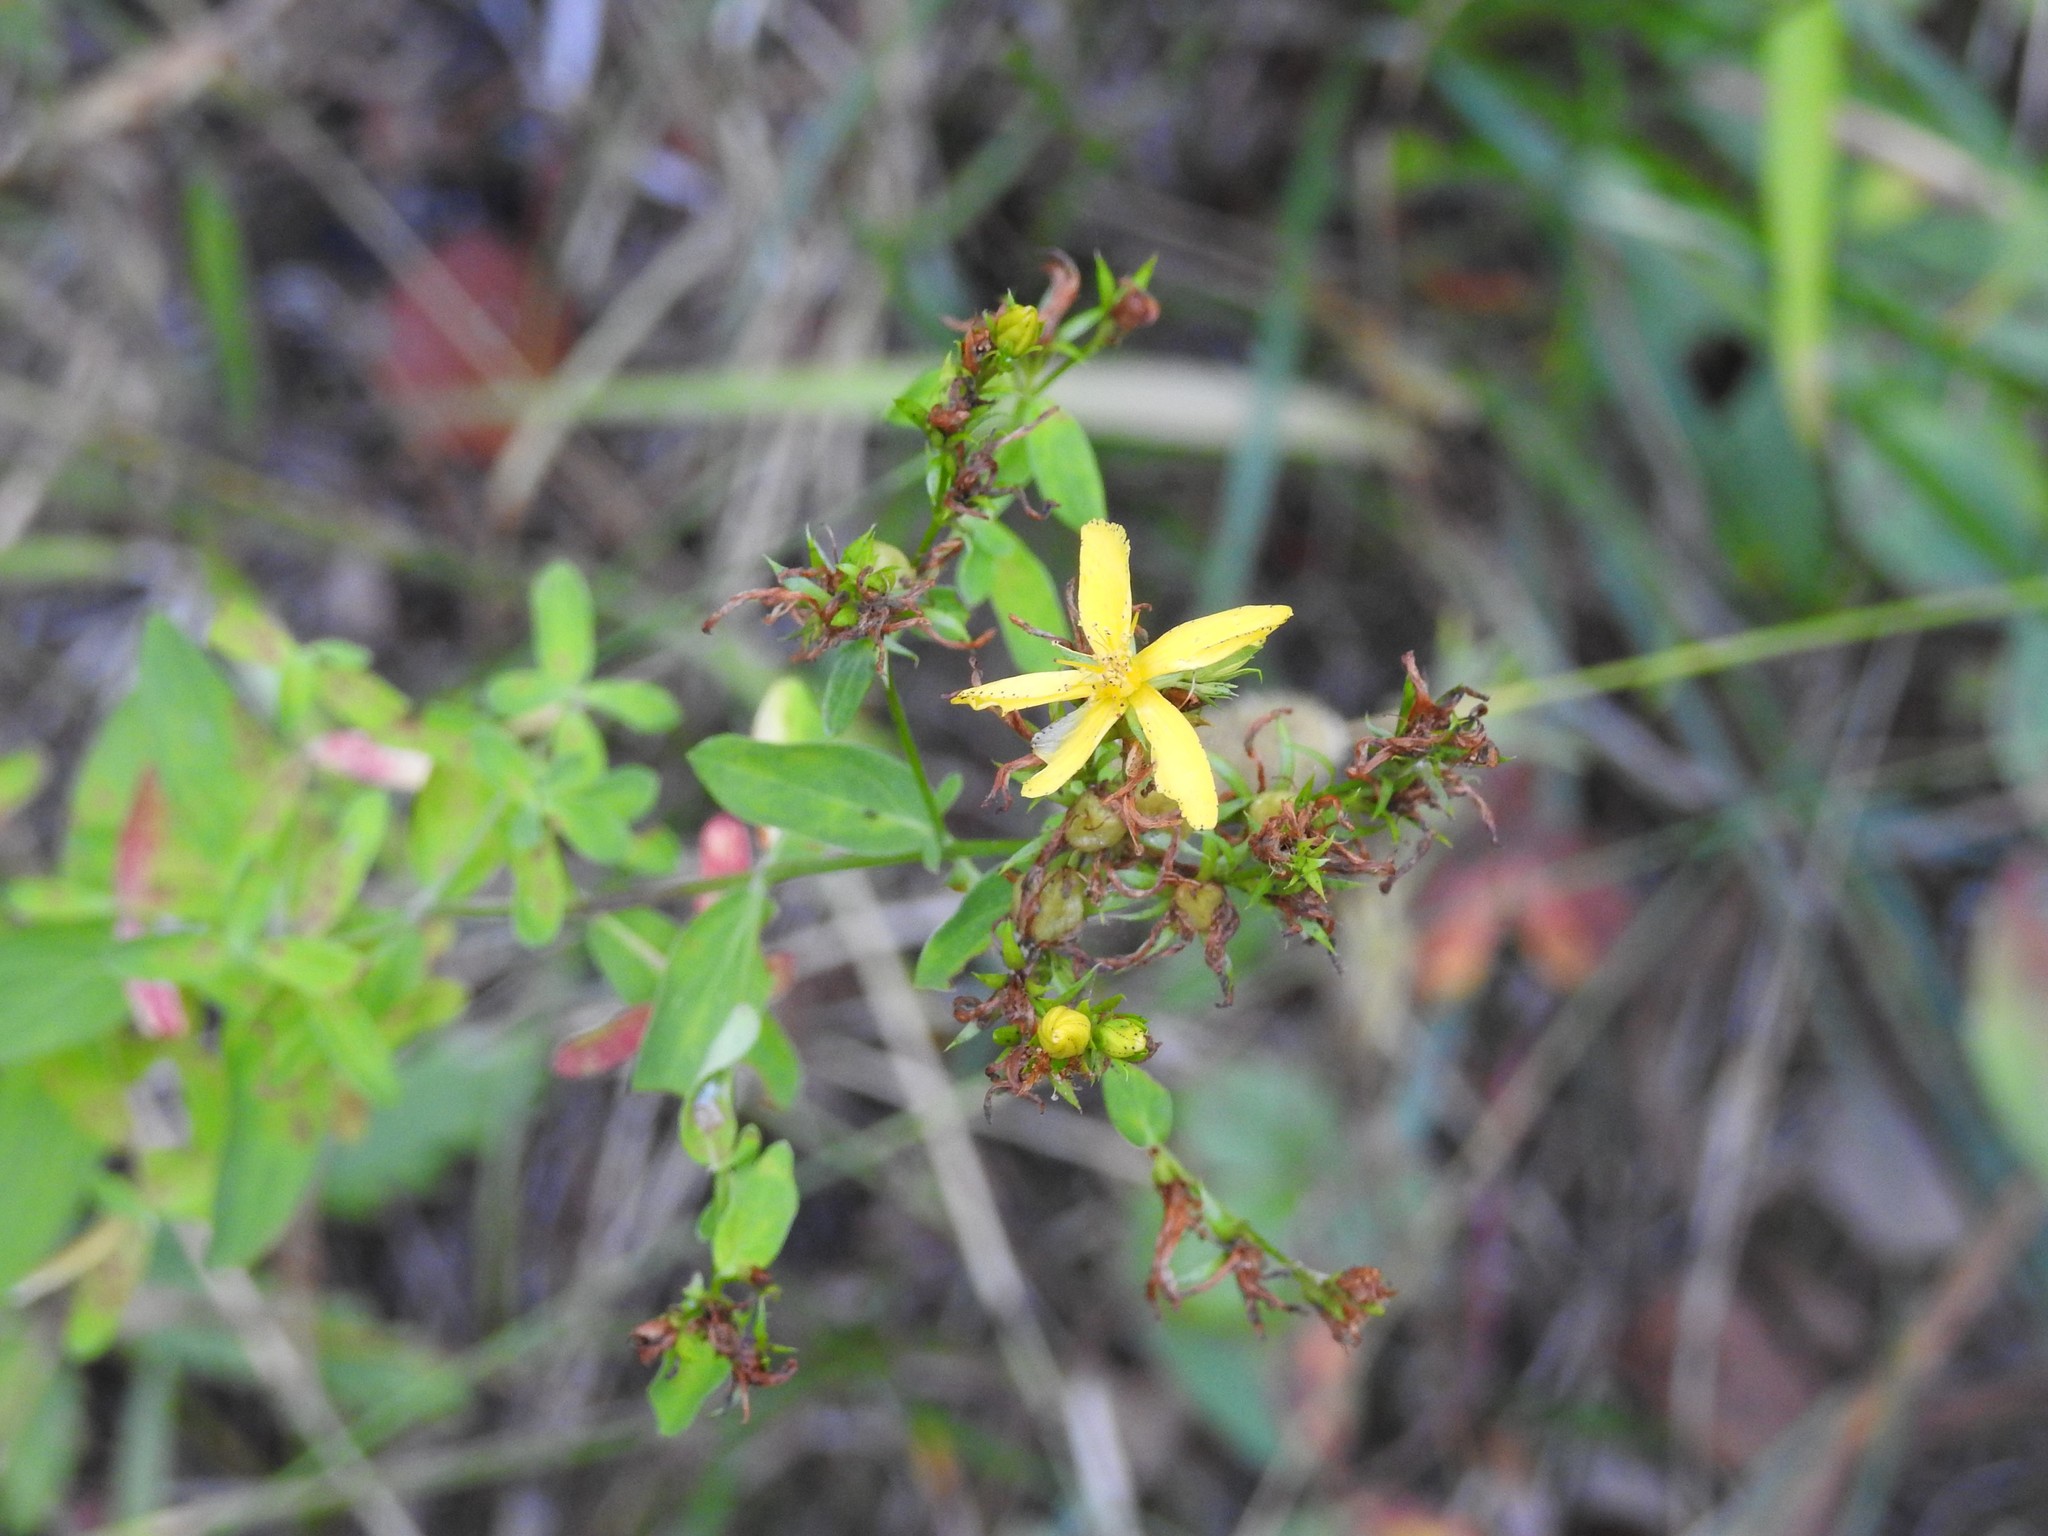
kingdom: Plantae
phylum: Tracheophyta
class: Magnoliopsida
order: Malpighiales
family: Hypericaceae
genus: Hypericum
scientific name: Hypericum perforatum
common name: Common st. johnswort
